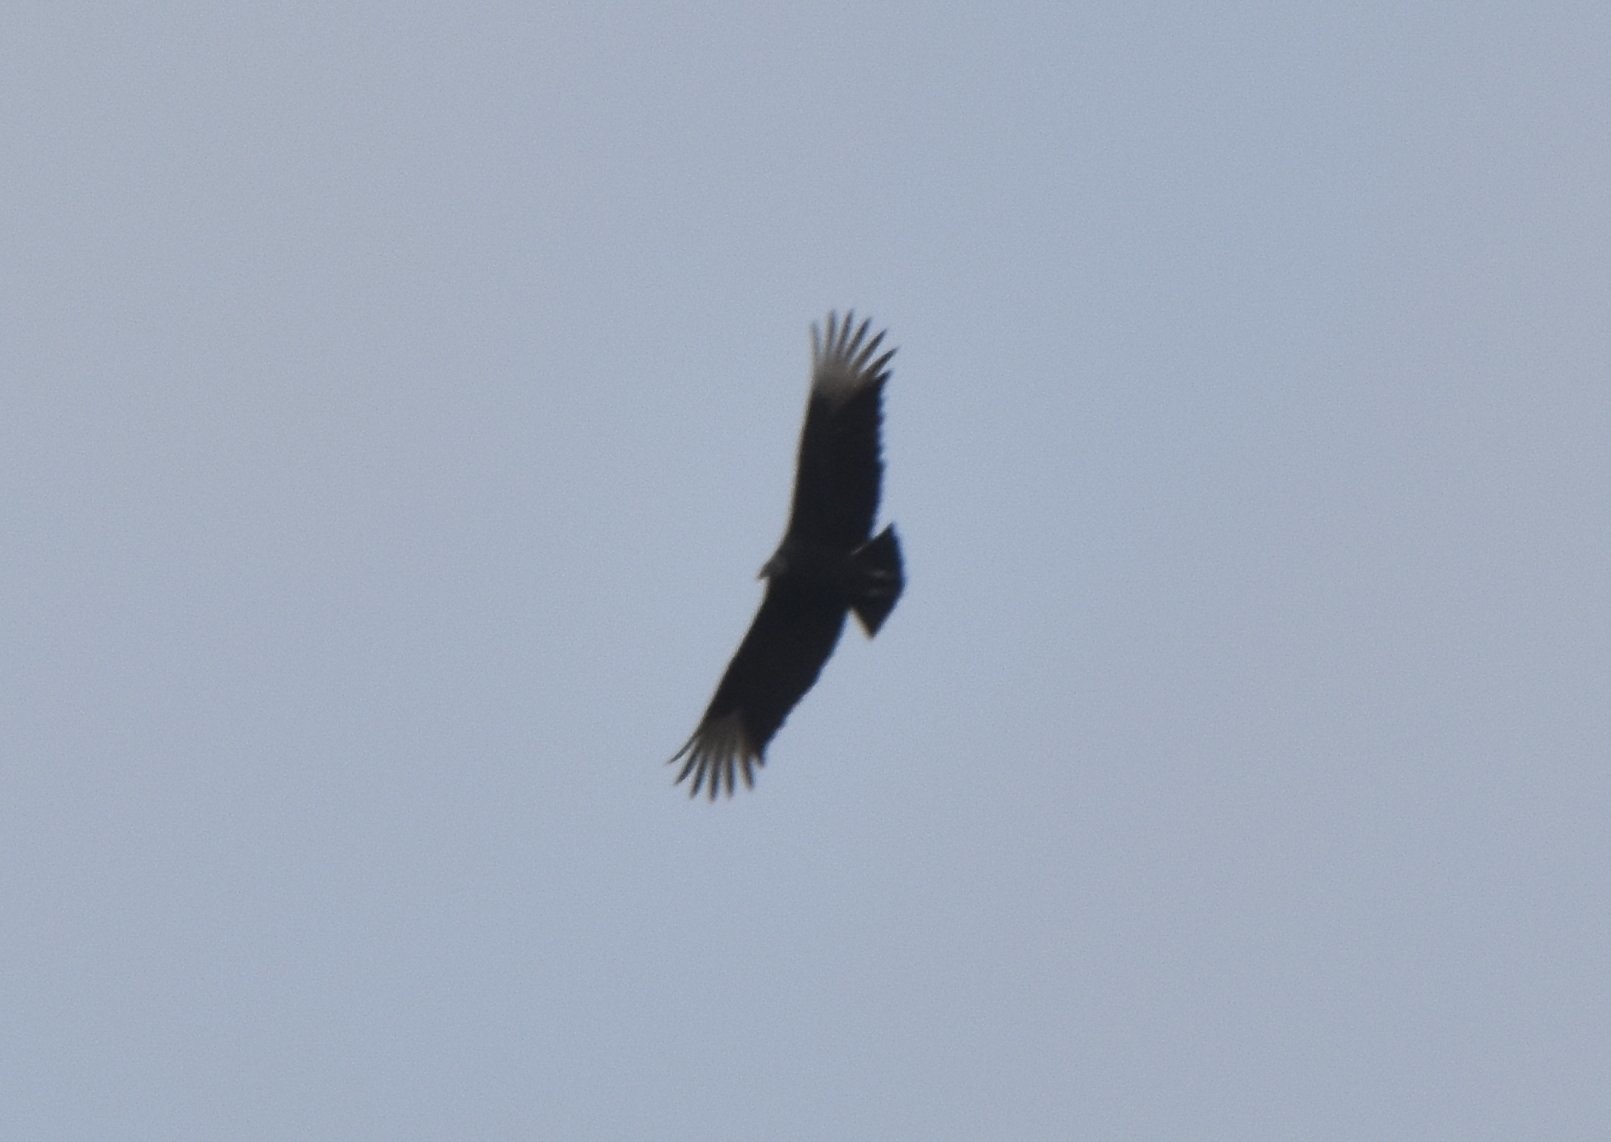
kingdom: Animalia
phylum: Chordata
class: Aves
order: Accipitriformes
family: Cathartidae
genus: Coragyps
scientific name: Coragyps atratus
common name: Black vulture
